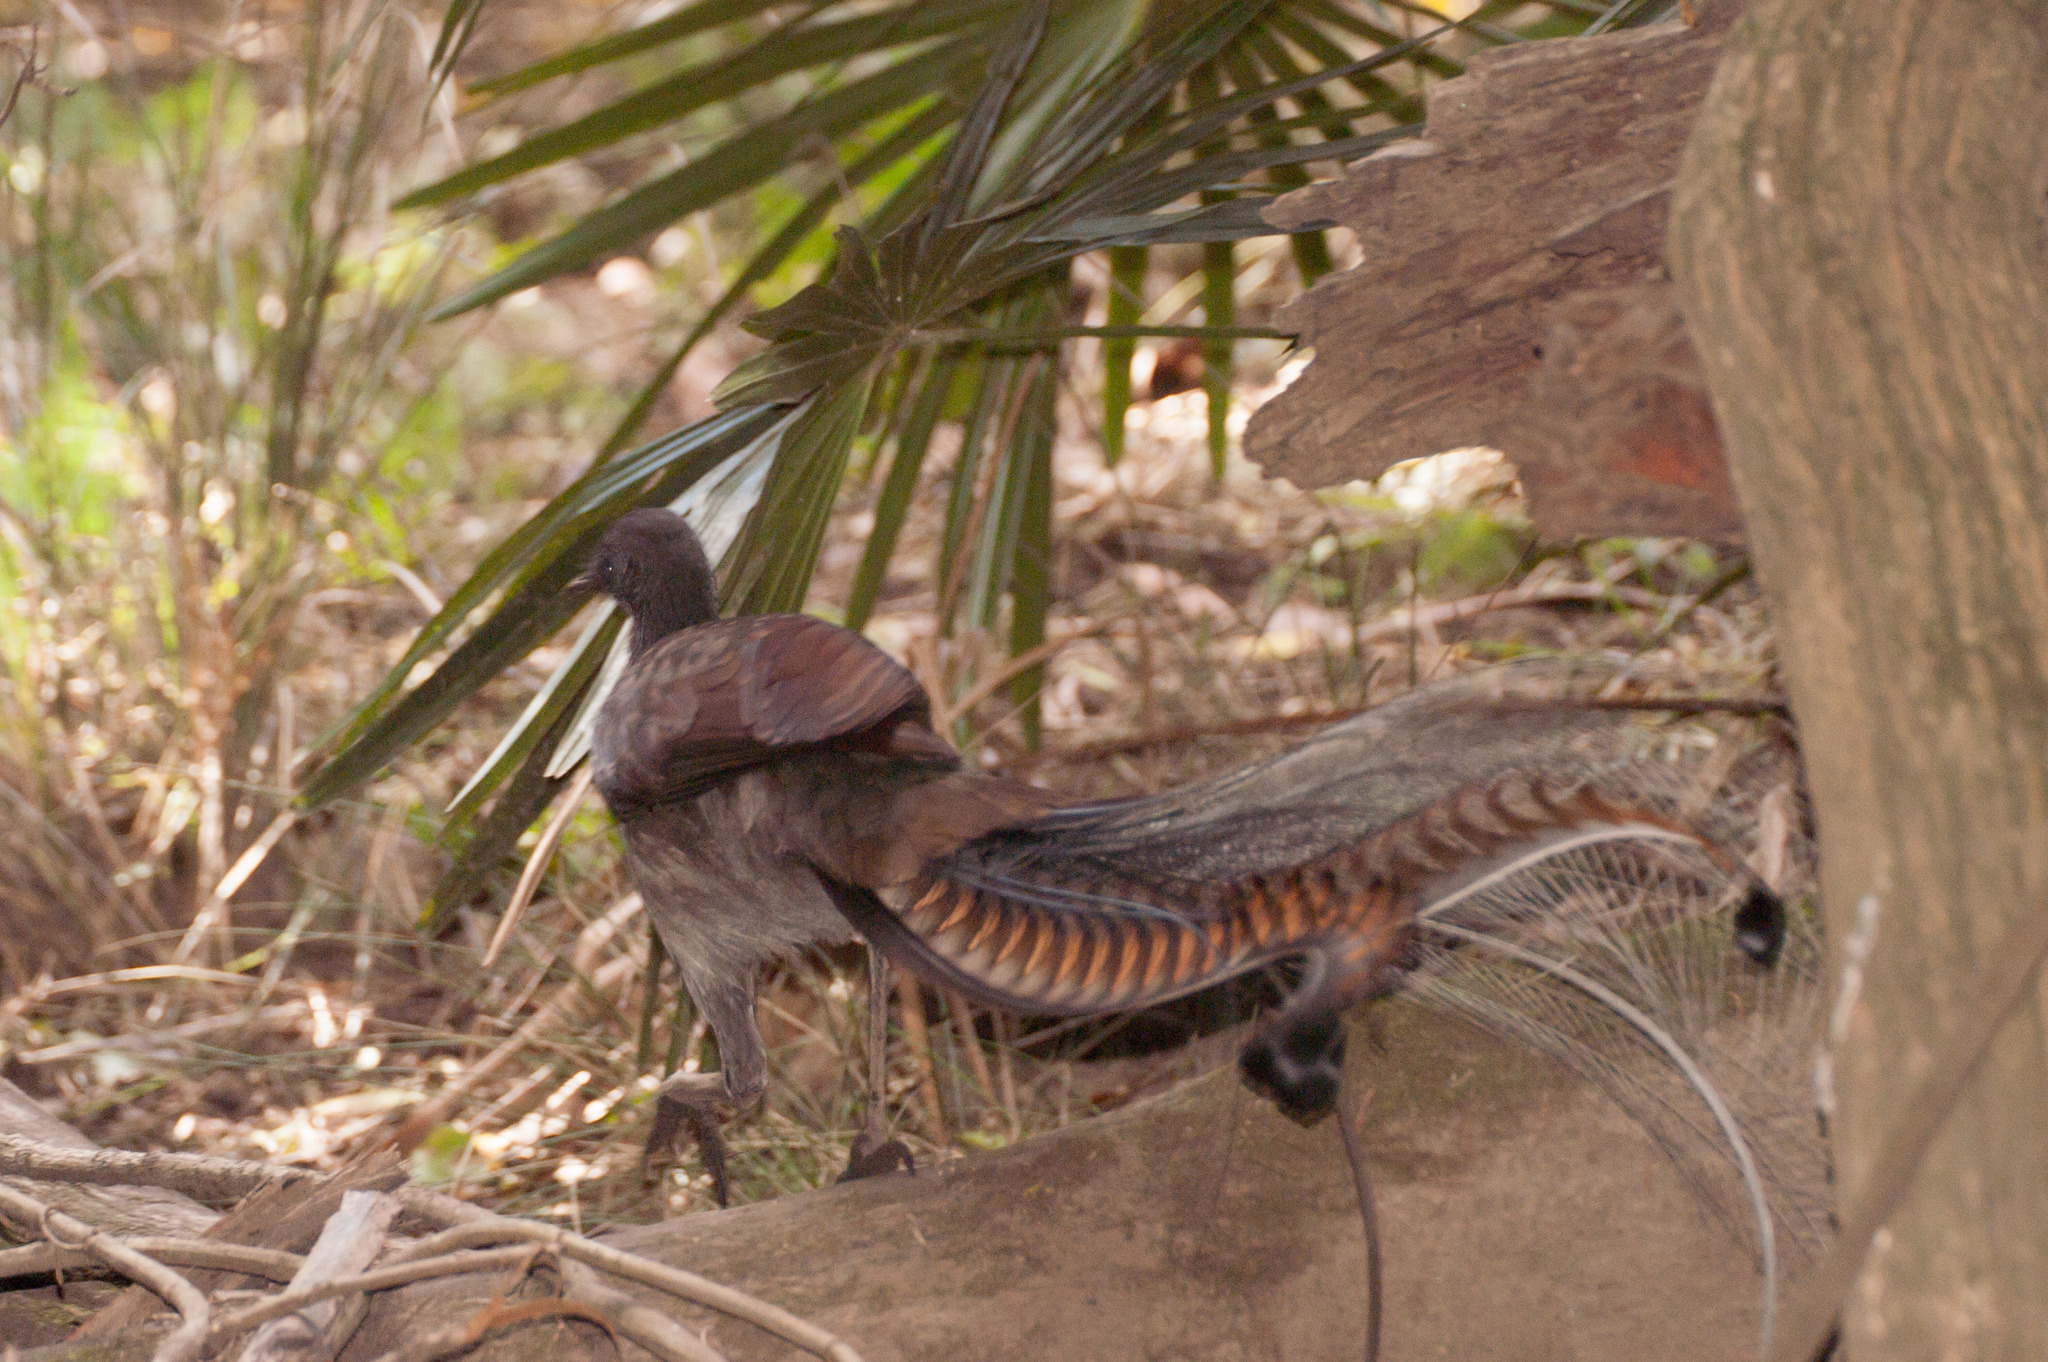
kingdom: Animalia
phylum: Chordata
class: Aves
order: Passeriformes
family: Menuridae
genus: Menura
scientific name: Menura novaehollandiae
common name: Superb lyrebird
